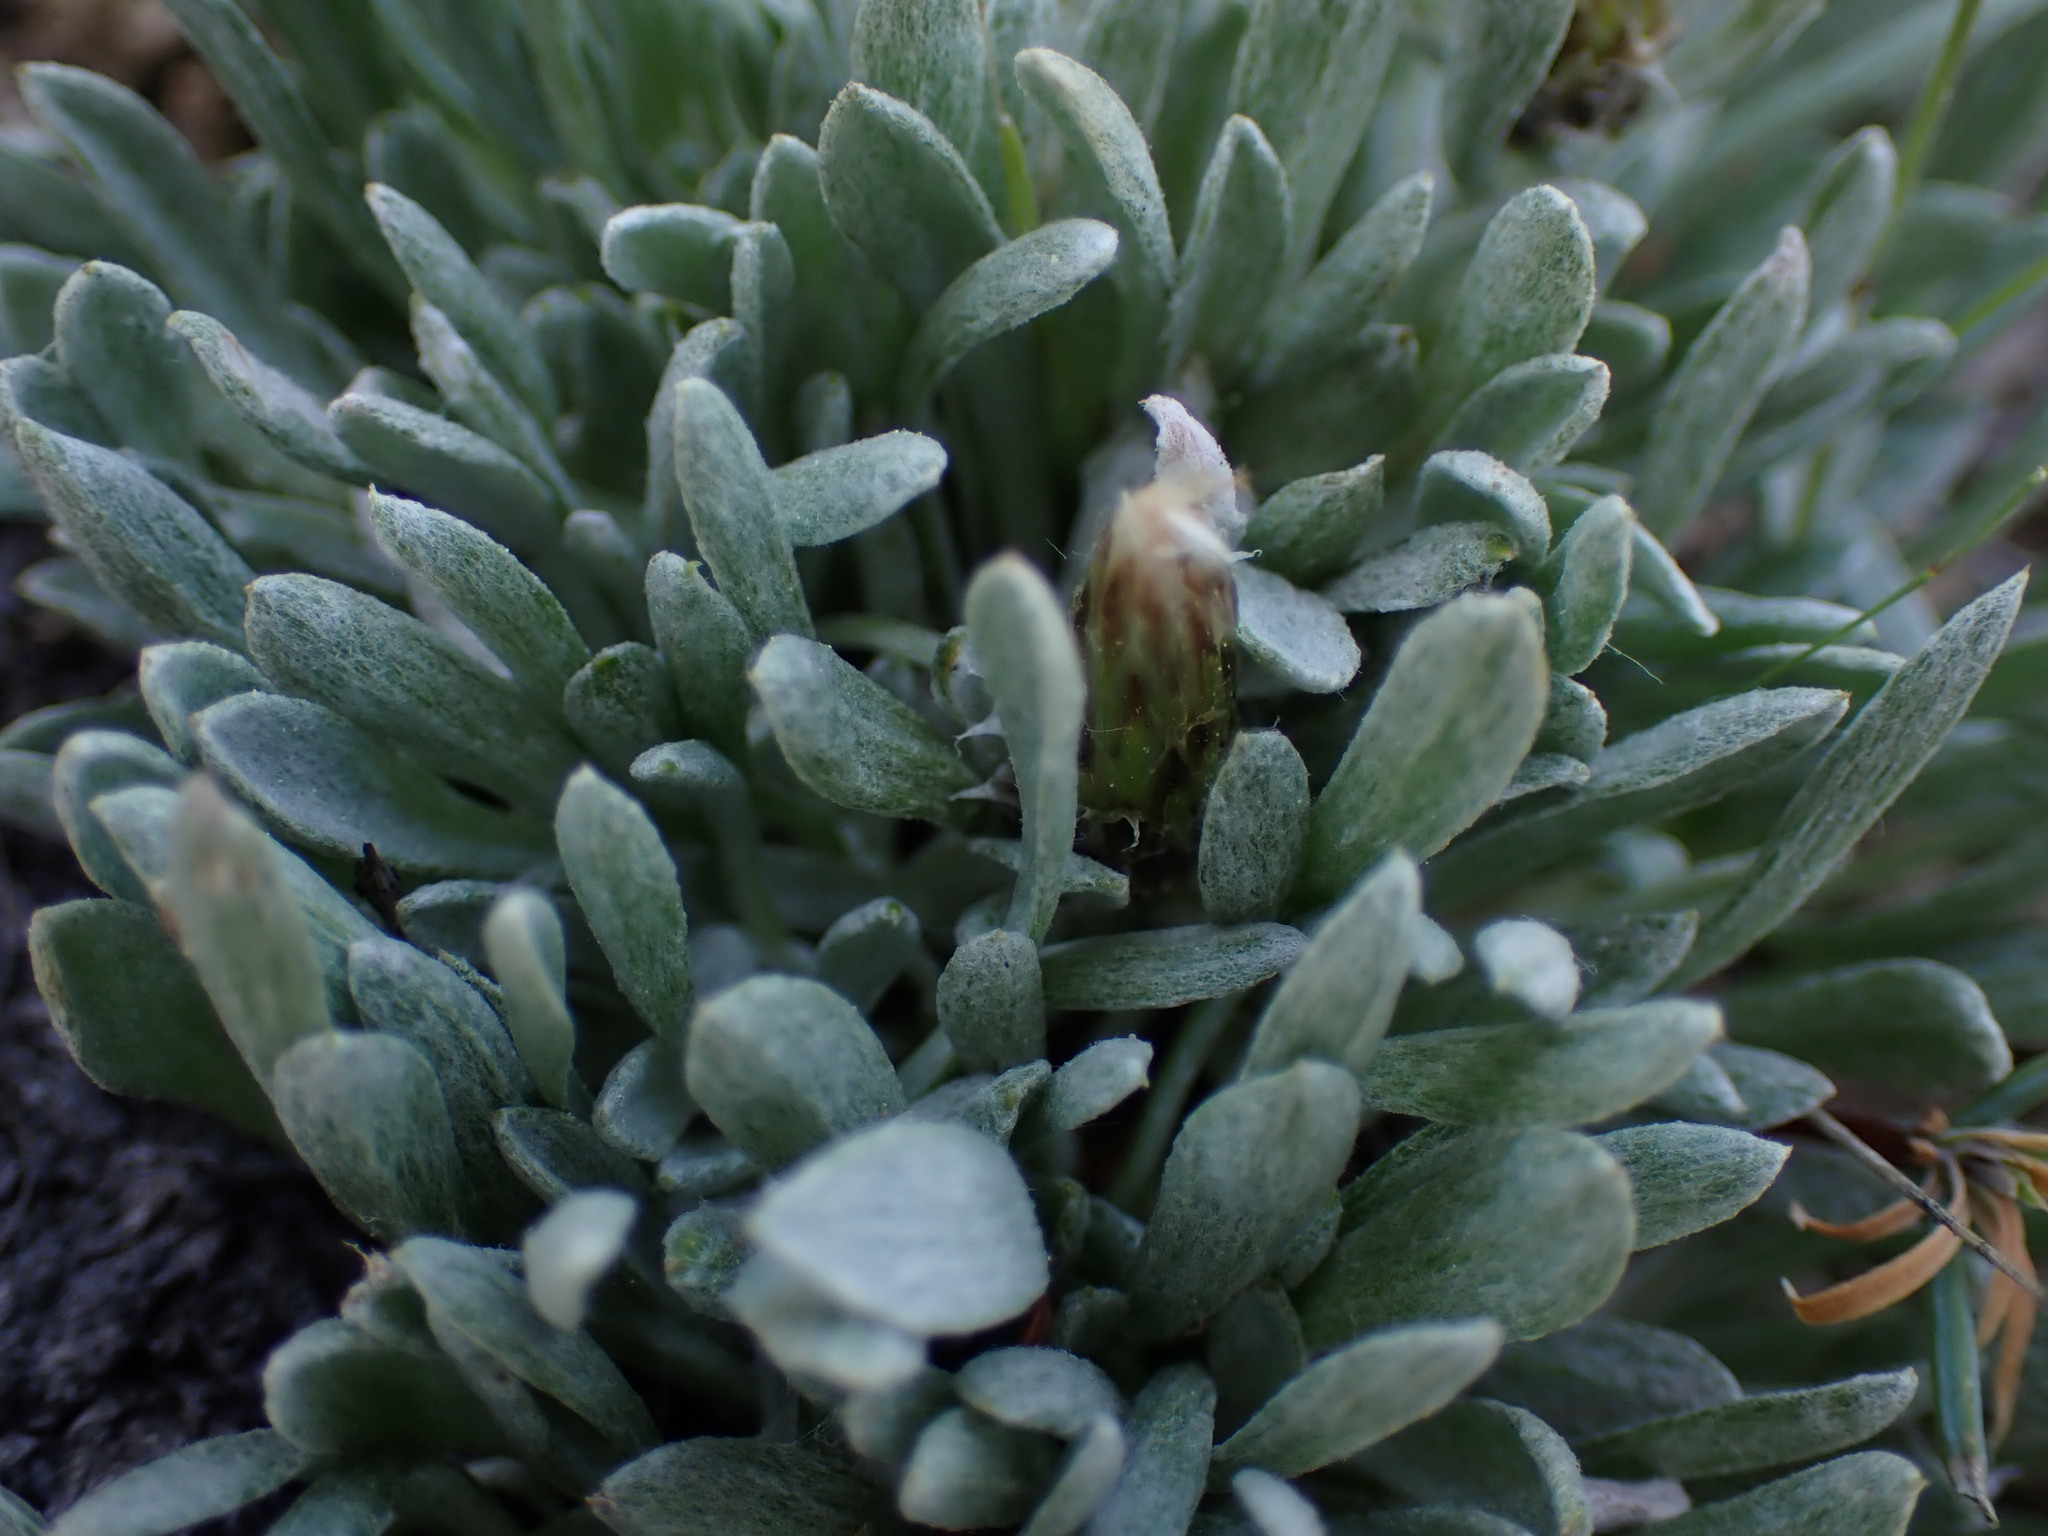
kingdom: Plantae
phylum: Tracheophyta
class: Magnoliopsida
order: Asterales
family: Asteraceae
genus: Antennaria
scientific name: Antennaria dimorpha
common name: Cushion pussytoes
